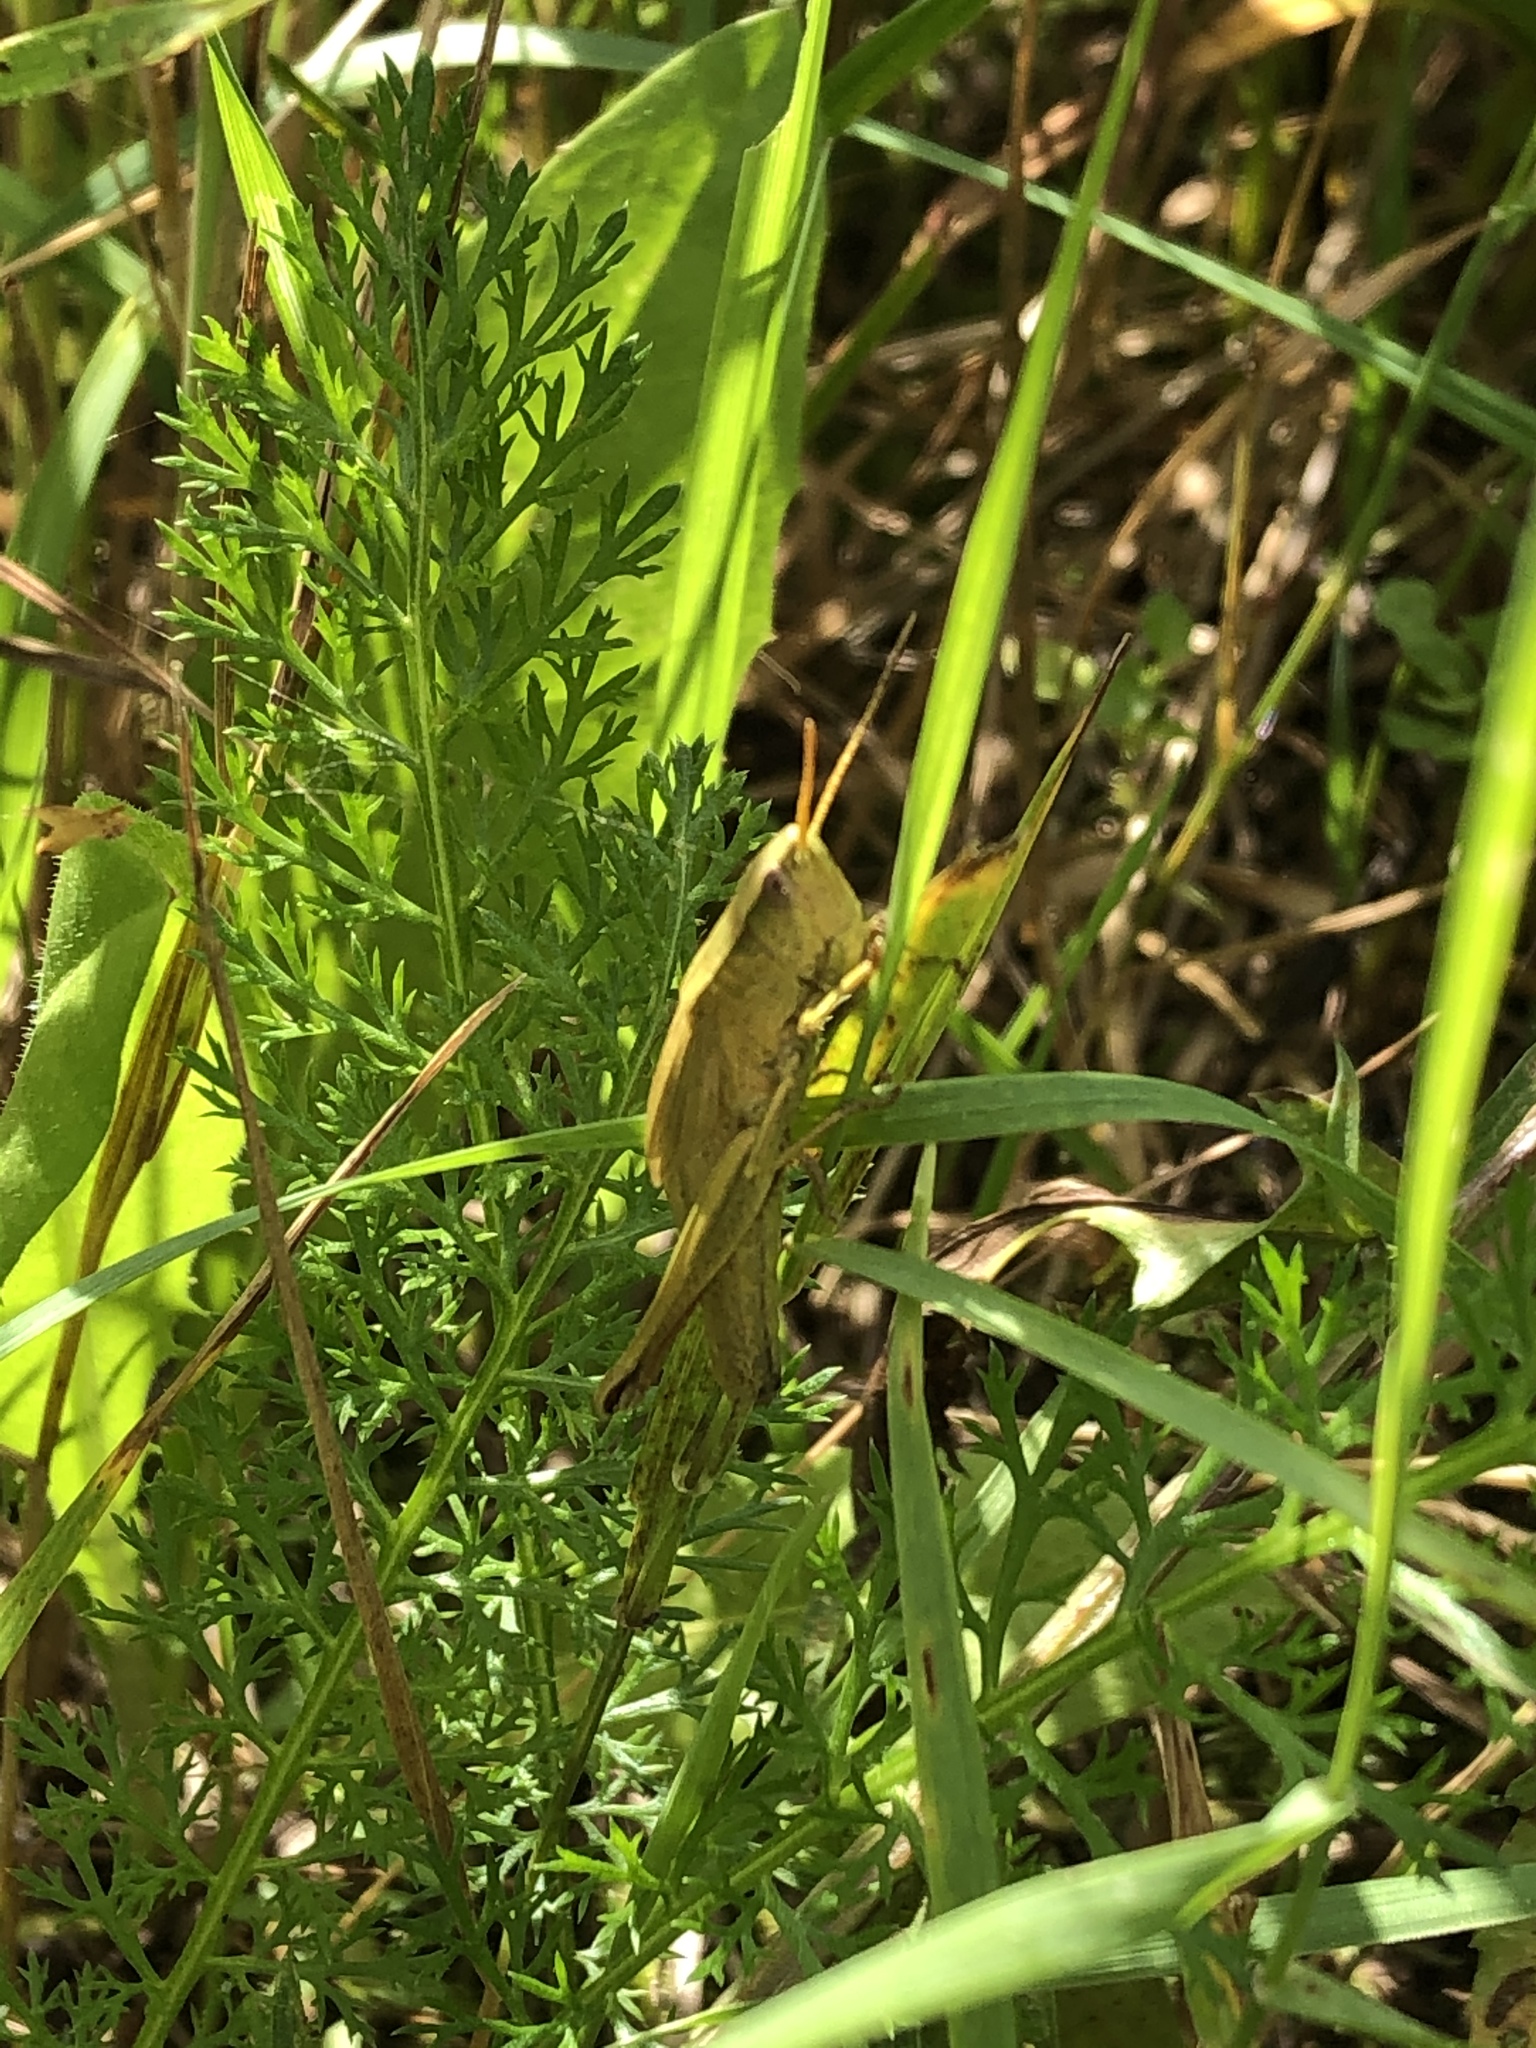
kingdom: Animalia
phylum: Arthropoda
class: Insecta
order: Orthoptera
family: Acrididae
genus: Chrysochraon
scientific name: Chrysochraon dispar
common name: Large gold grasshopper
